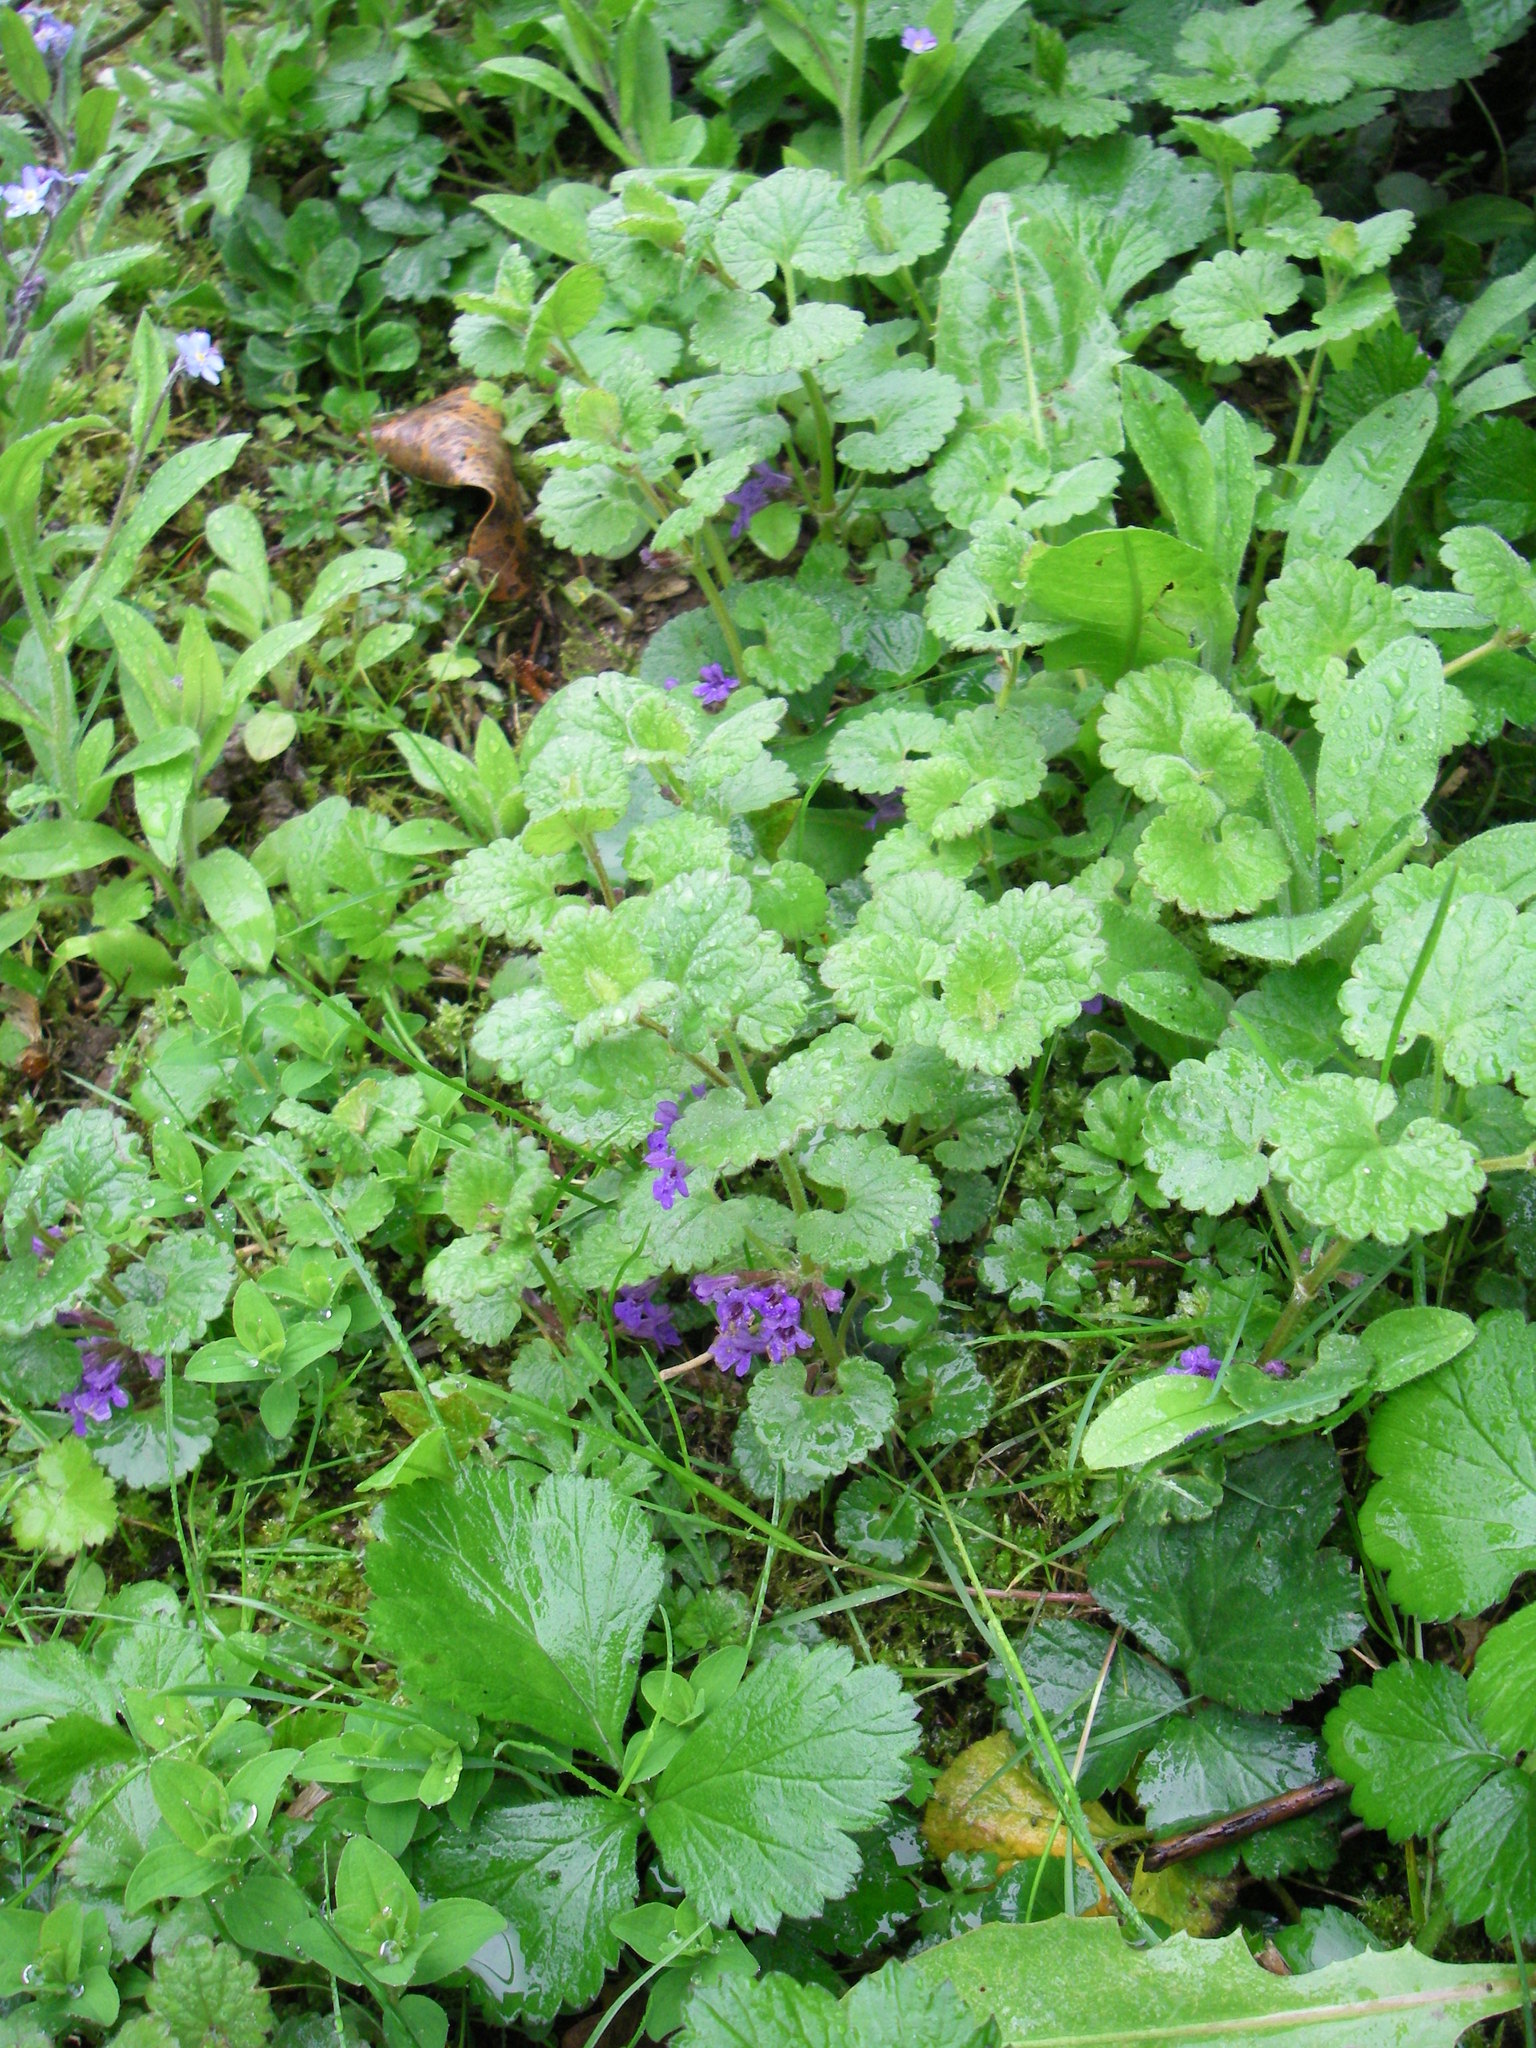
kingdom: Plantae
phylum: Tracheophyta
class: Magnoliopsida
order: Lamiales
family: Lamiaceae
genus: Glechoma
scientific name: Glechoma hederacea
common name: Ground ivy
